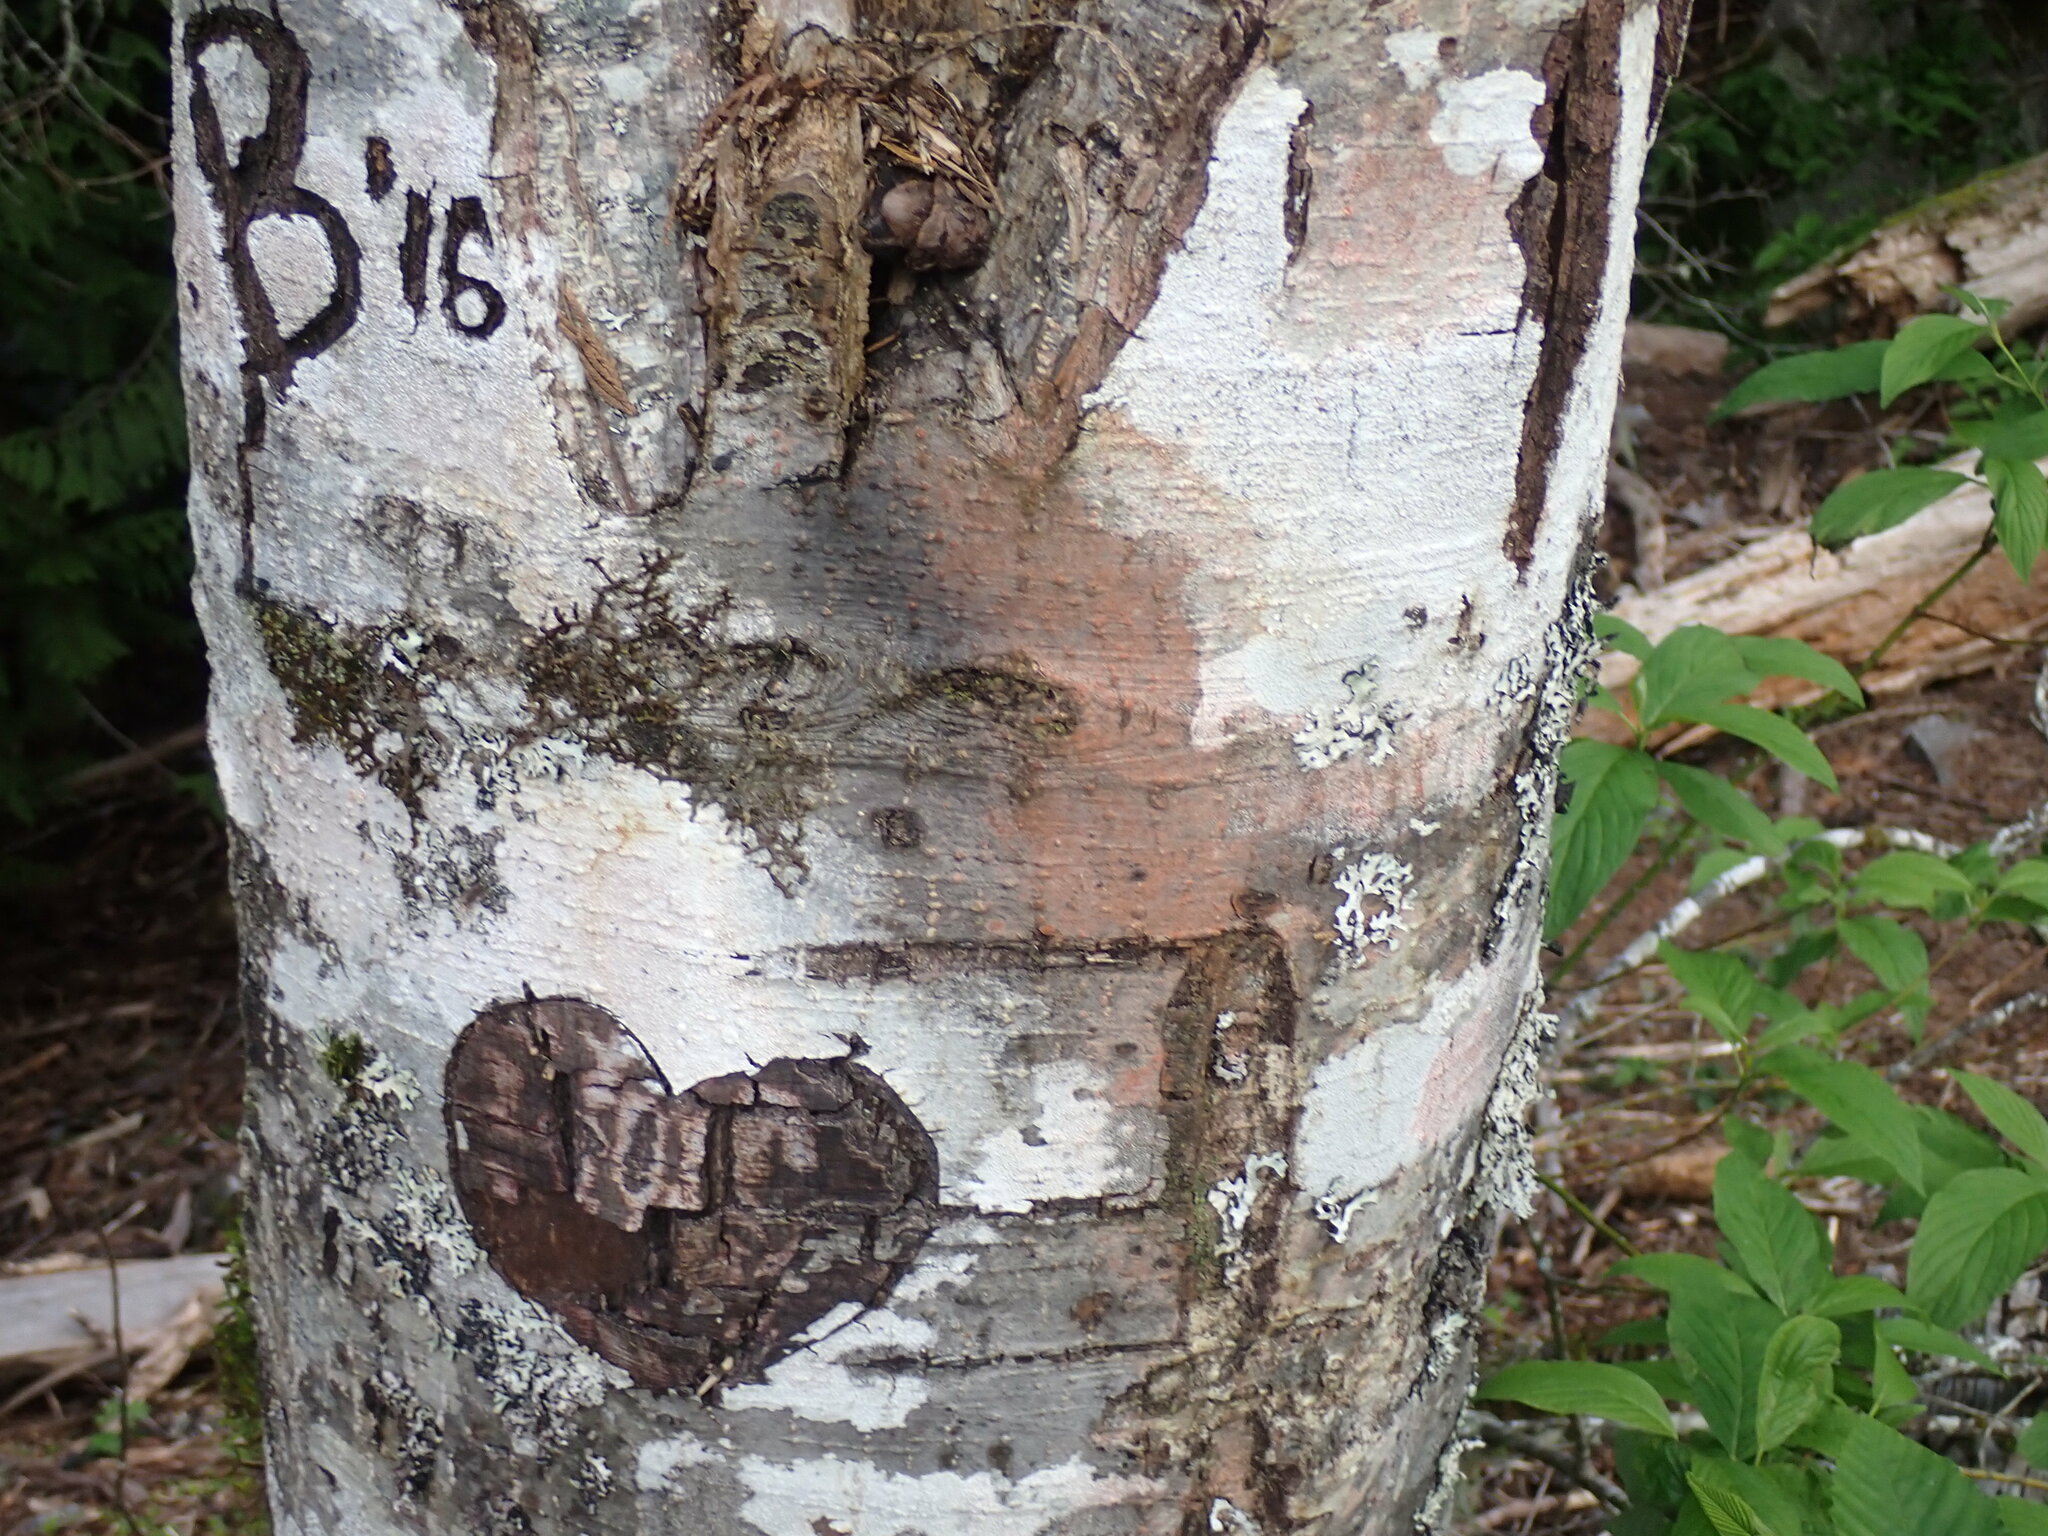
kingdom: Plantae
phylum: Tracheophyta
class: Magnoliopsida
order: Fagales
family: Betulaceae
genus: Alnus
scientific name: Alnus rubra
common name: Red alder
